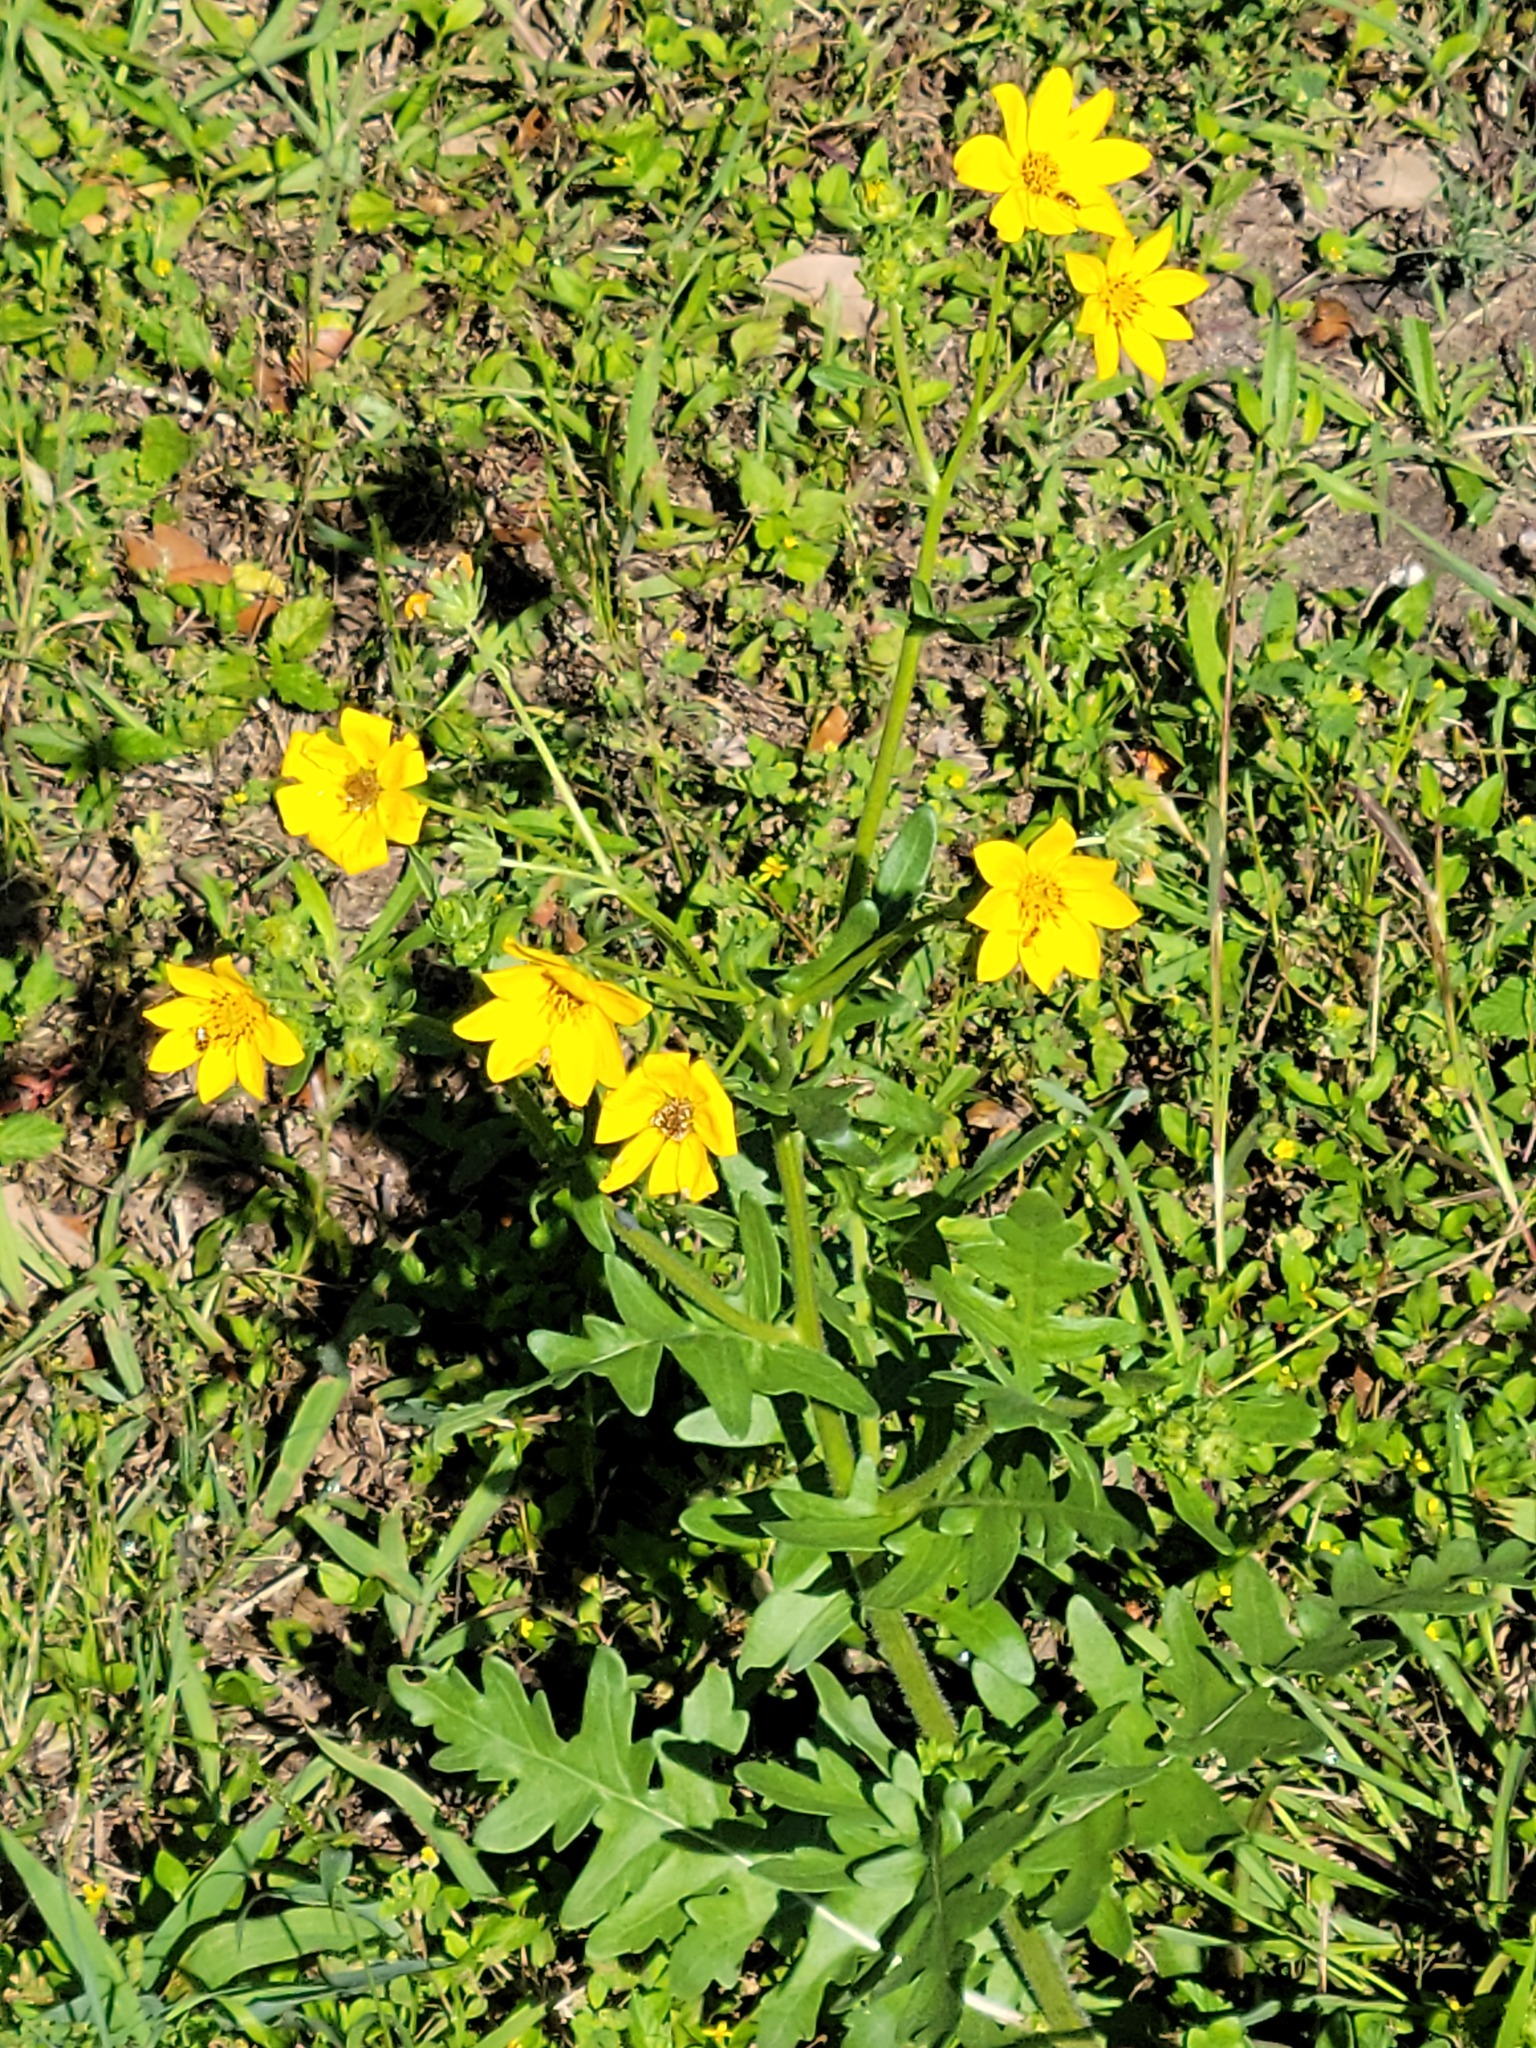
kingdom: Plantae
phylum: Tracheophyta
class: Magnoliopsida
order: Asterales
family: Asteraceae
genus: Engelmannia
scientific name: Engelmannia peristenia
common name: Engelmann's daisy
